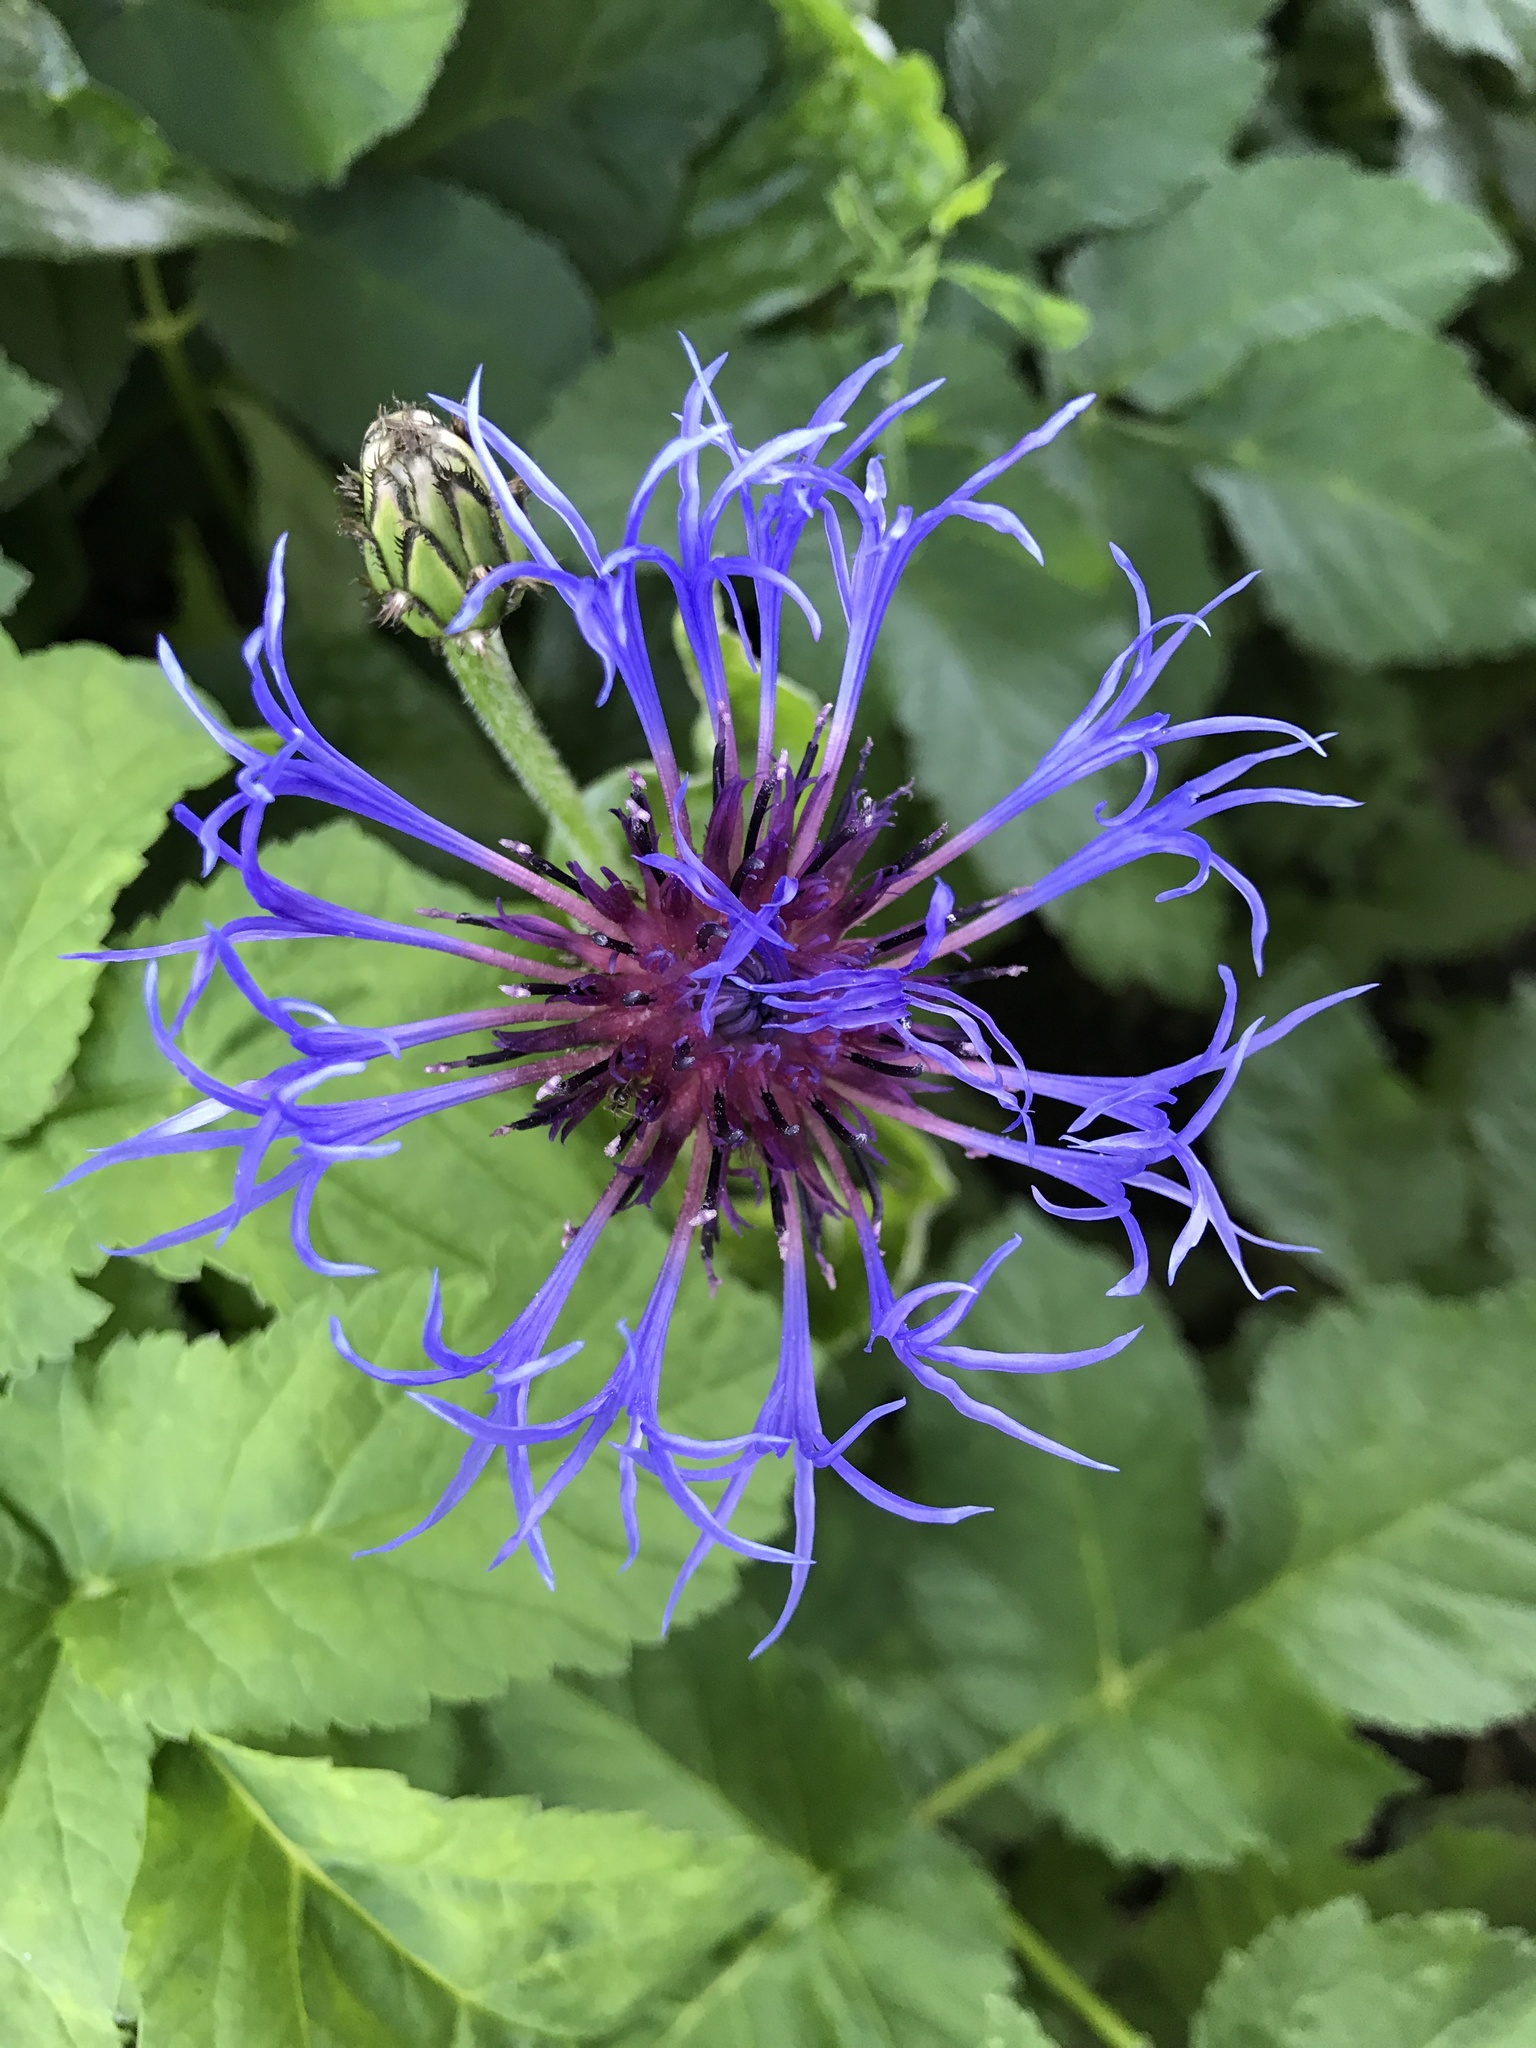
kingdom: Plantae
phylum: Tracheophyta
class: Magnoliopsida
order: Asterales
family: Asteraceae
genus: Centaurea
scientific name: Centaurea montana
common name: Perennial cornflower
